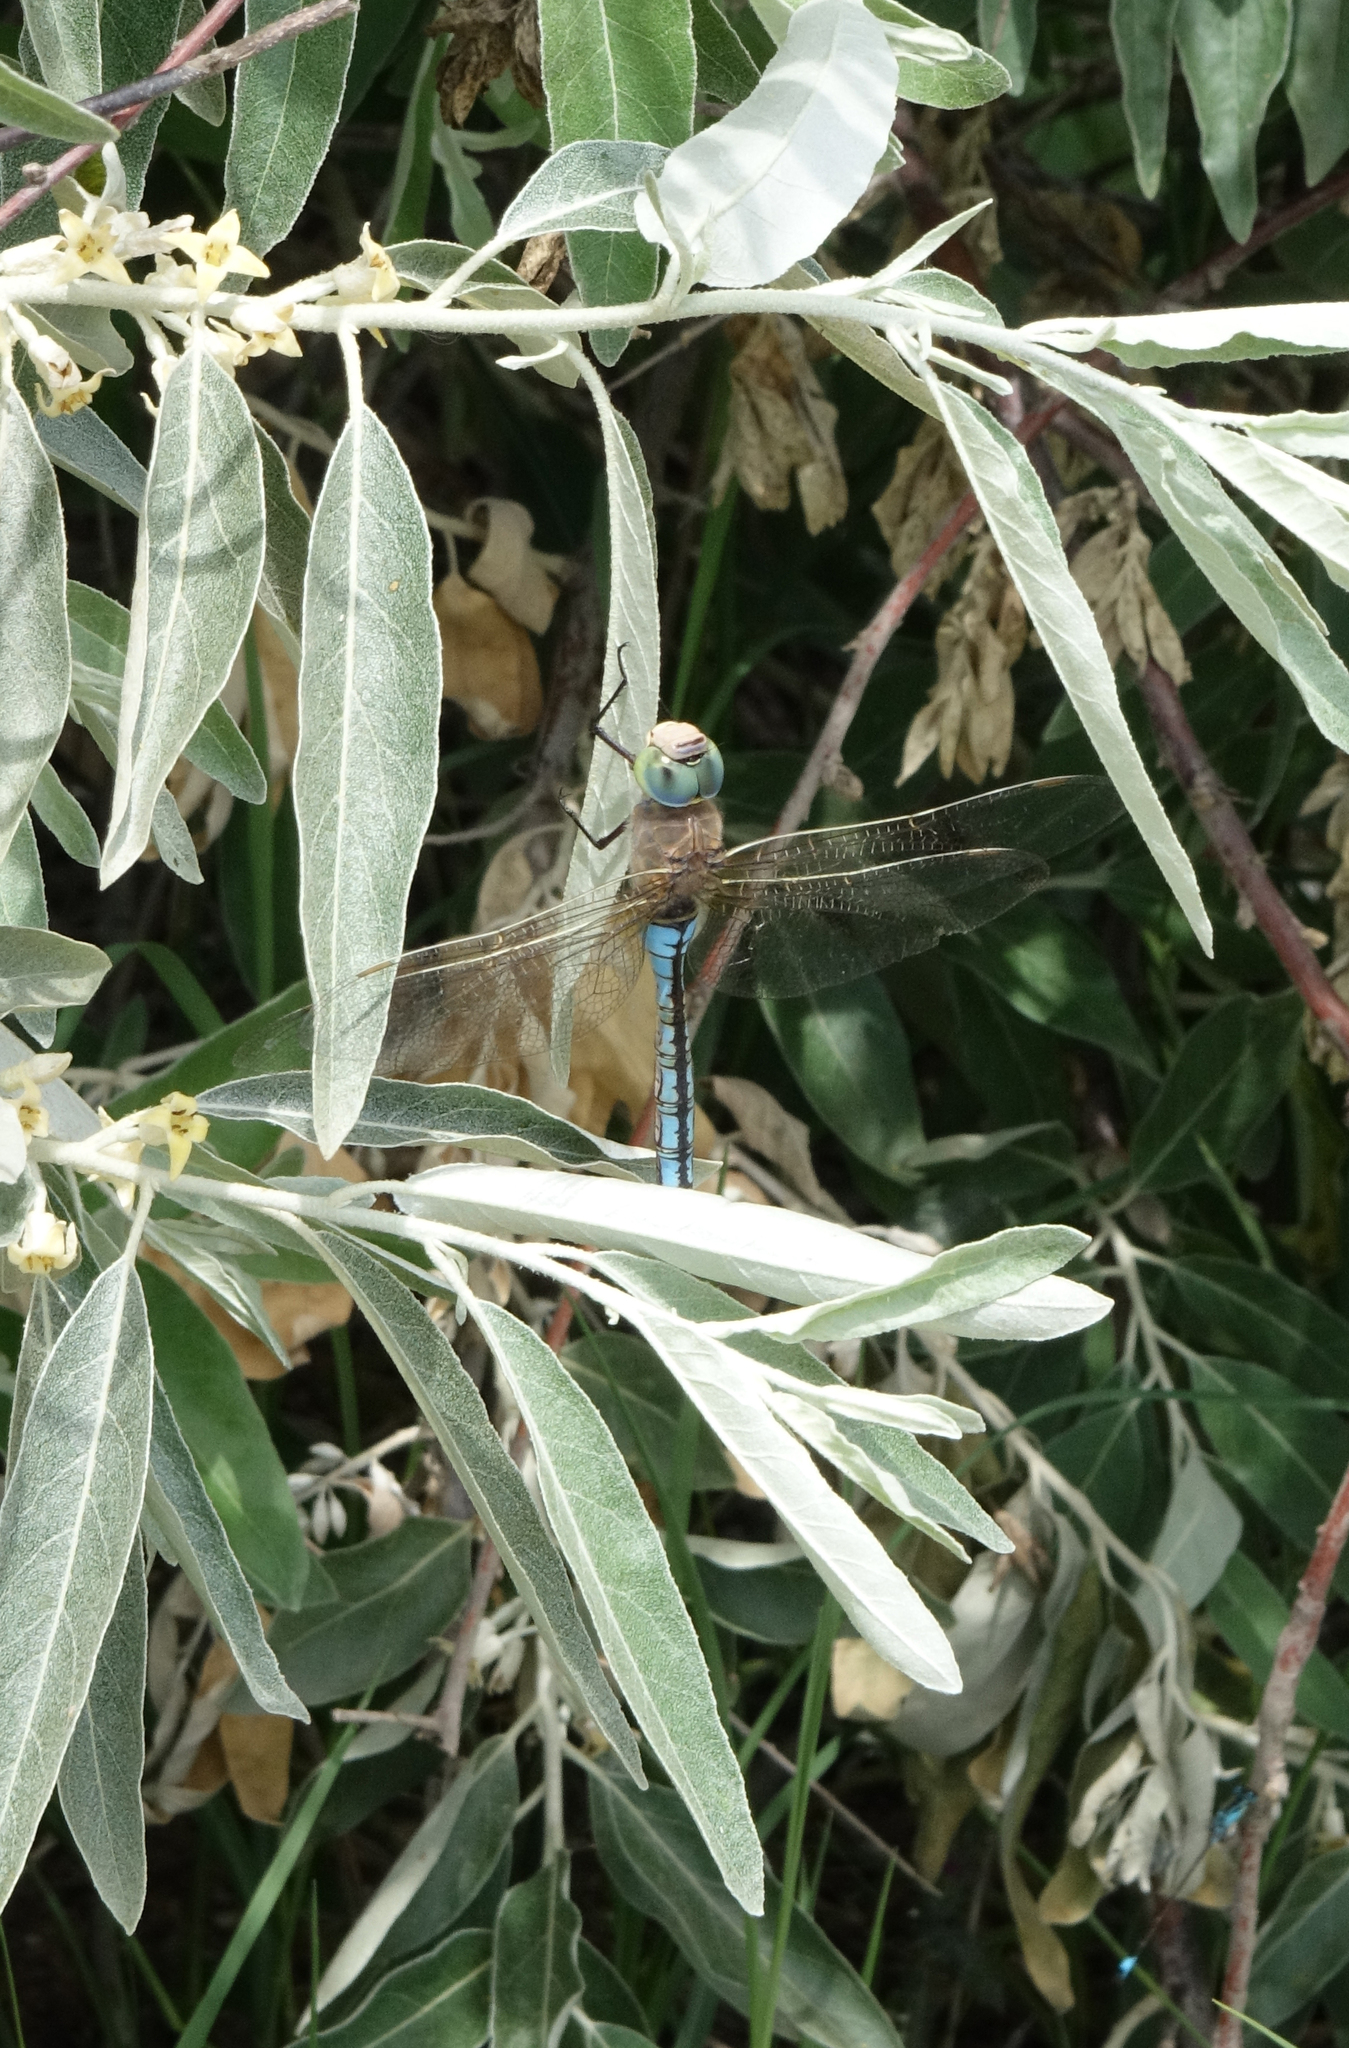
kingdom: Animalia
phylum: Arthropoda
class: Insecta
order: Odonata
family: Aeshnidae
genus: Anax
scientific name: Anax parthenope
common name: Lesser emperor
